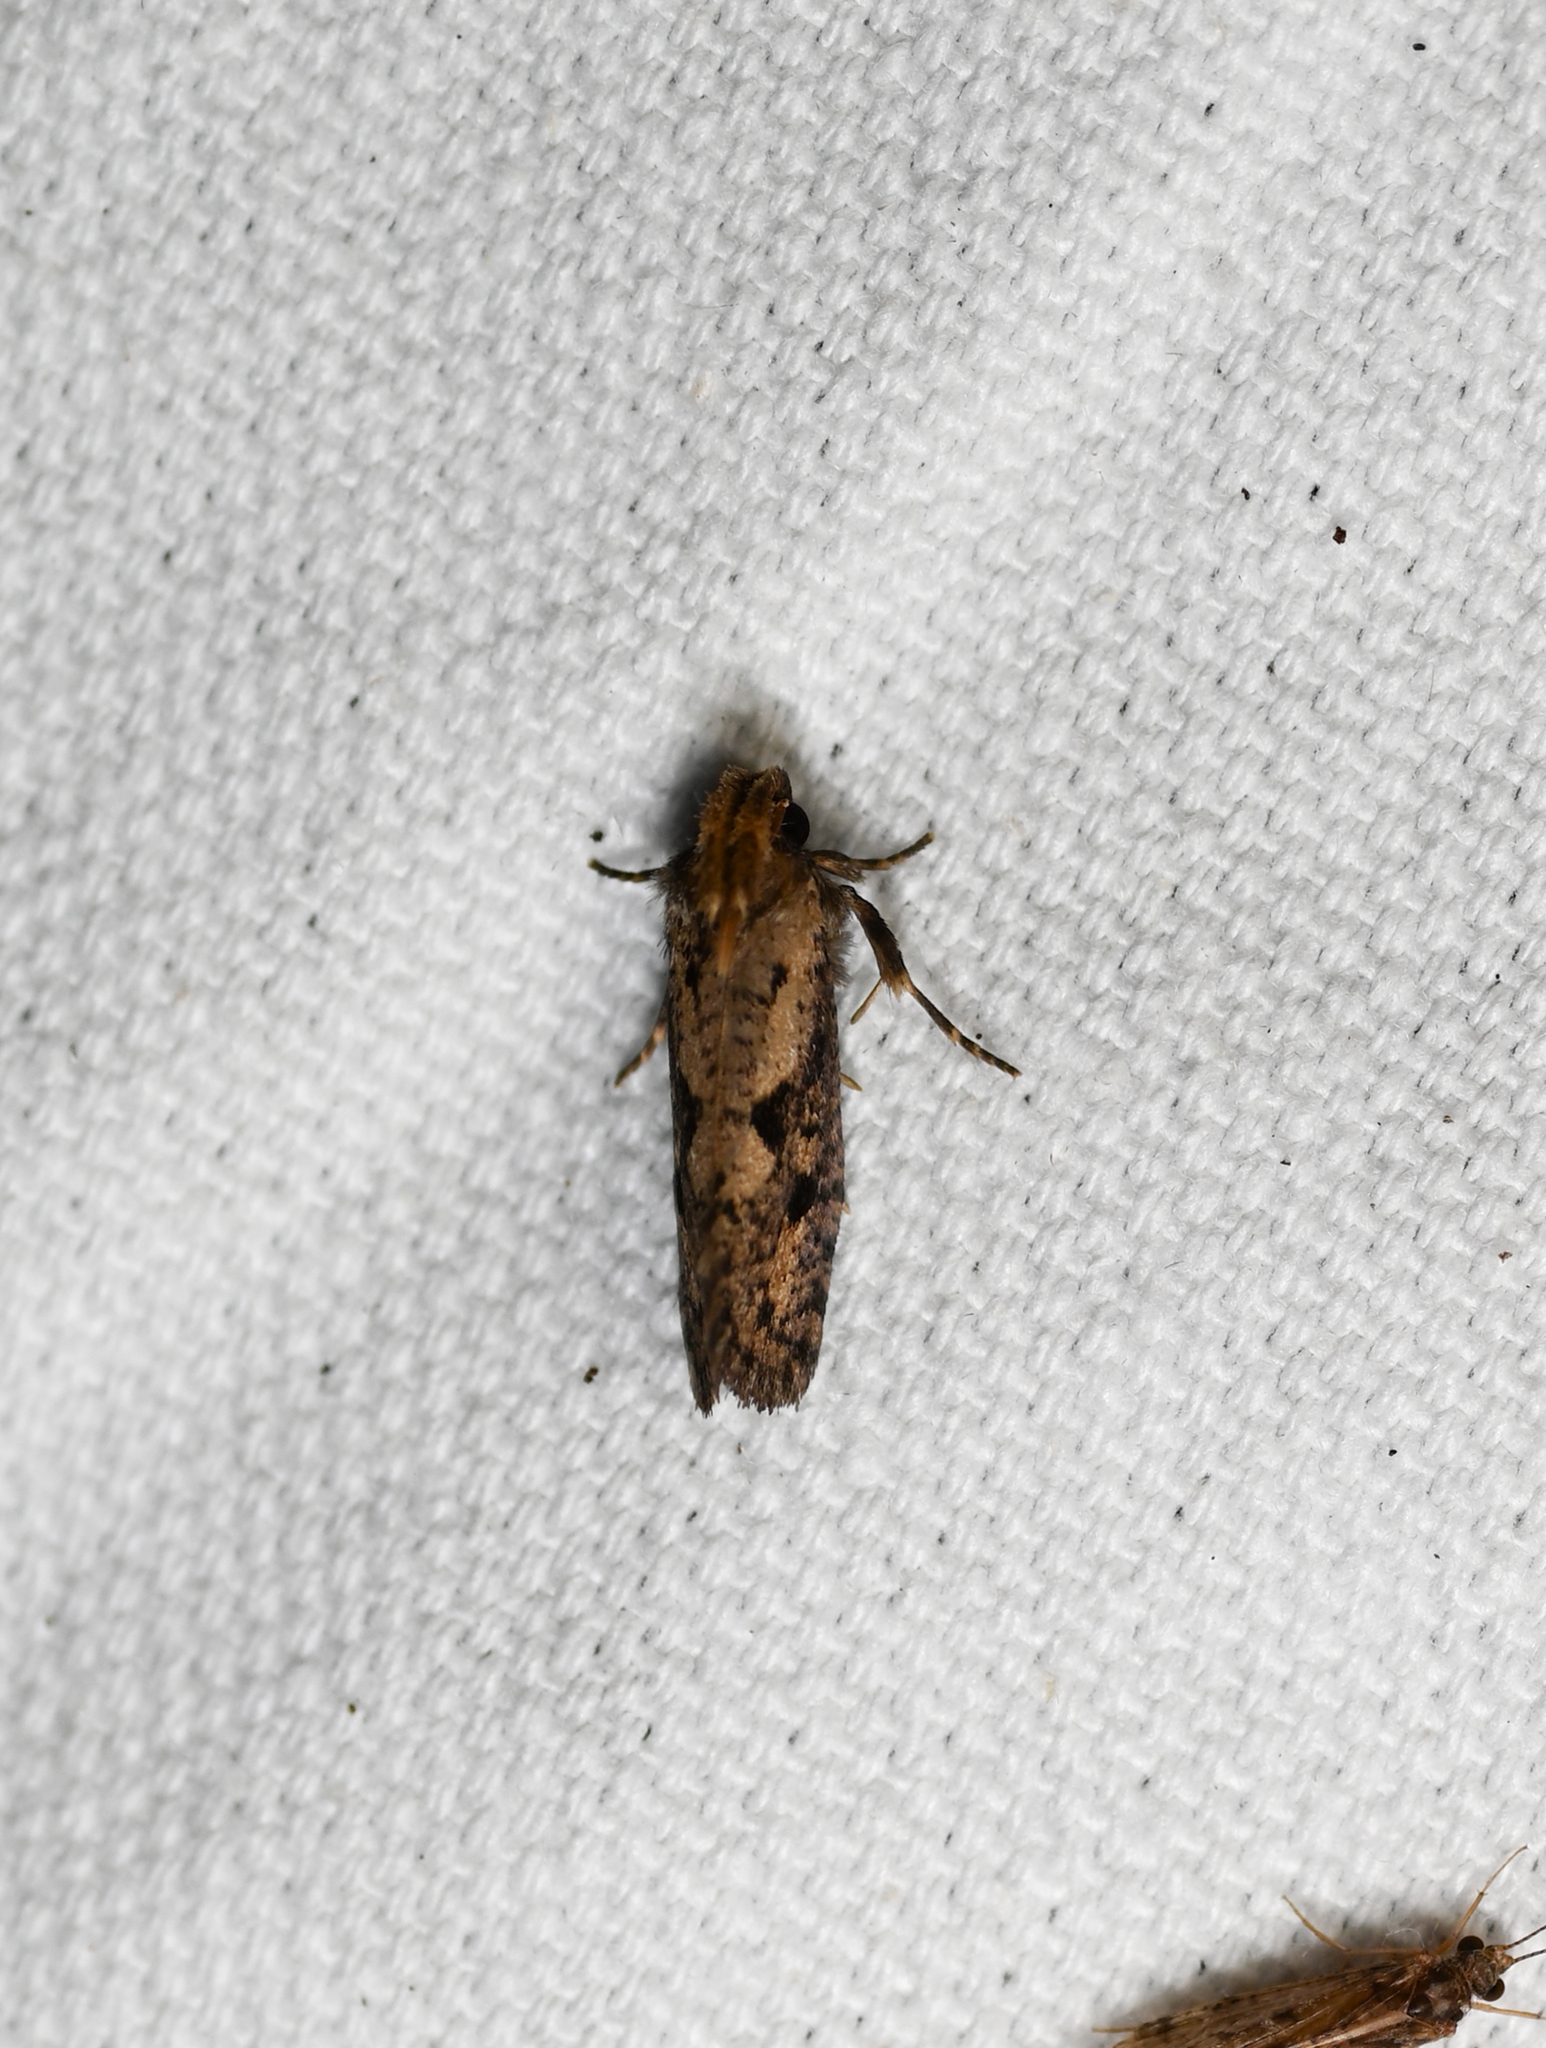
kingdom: Animalia
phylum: Arthropoda
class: Insecta
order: Lepidoptera
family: Tineidae
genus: Acrolophus
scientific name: Acrolophus popeanella
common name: Clemens' grass tubeworm moth
